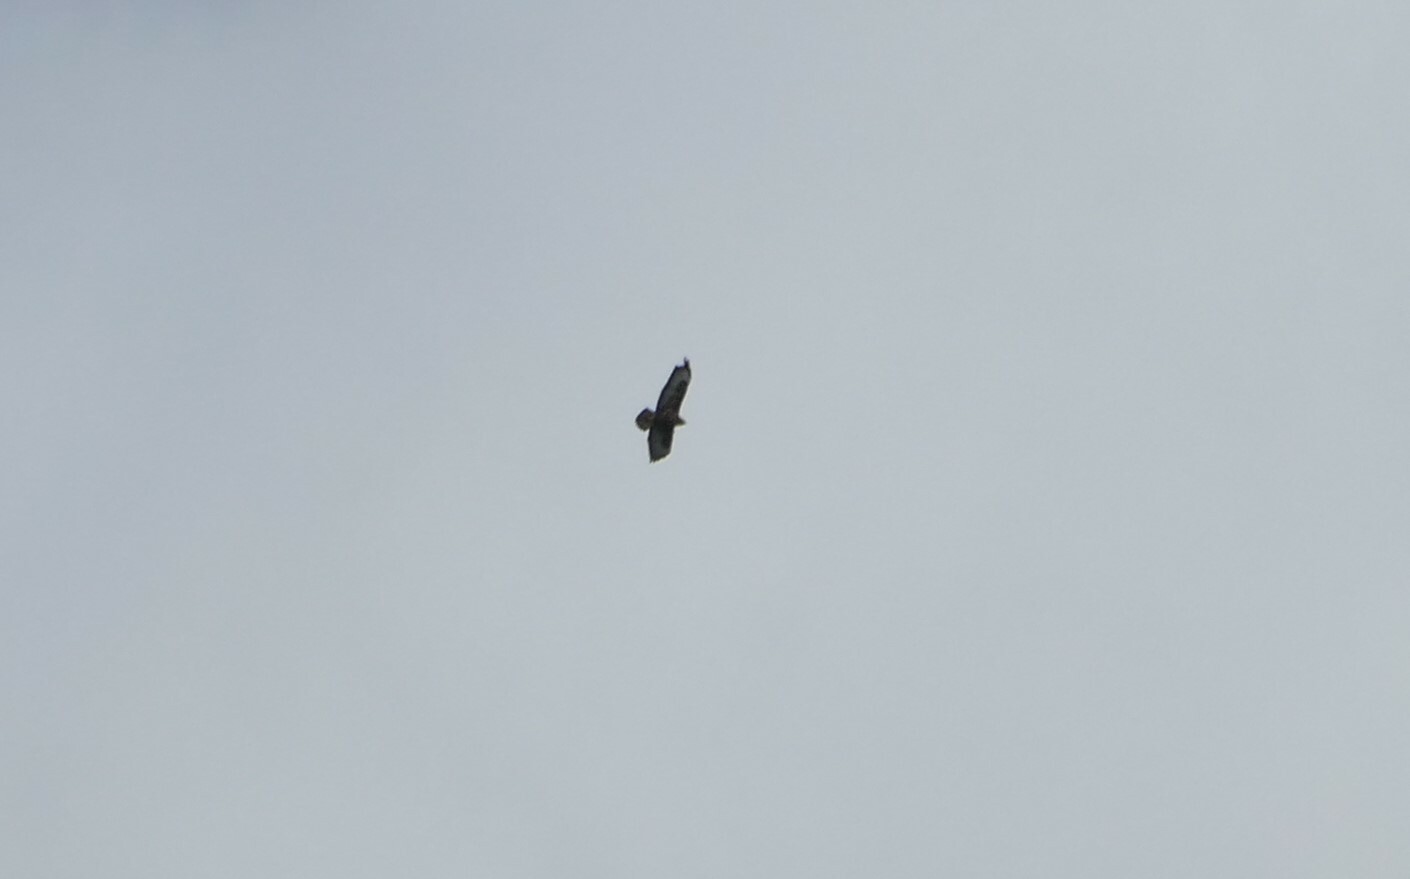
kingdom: Animalia
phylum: Chordata
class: Aves
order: Accipitriformes
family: Accipitridae
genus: Buteo
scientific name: Buteo buteo
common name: Common buzzard
